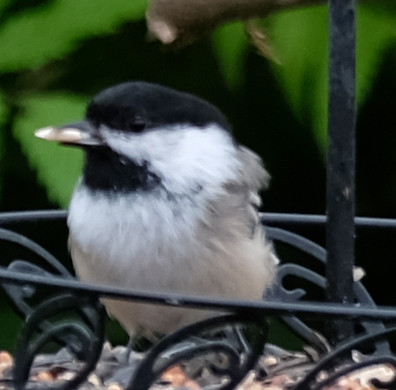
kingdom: Animalia
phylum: Chordata
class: Aves
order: Passeriformes
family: Paridae
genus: Poecile
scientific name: Poecile atricapillus
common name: Black-capped chickadee
